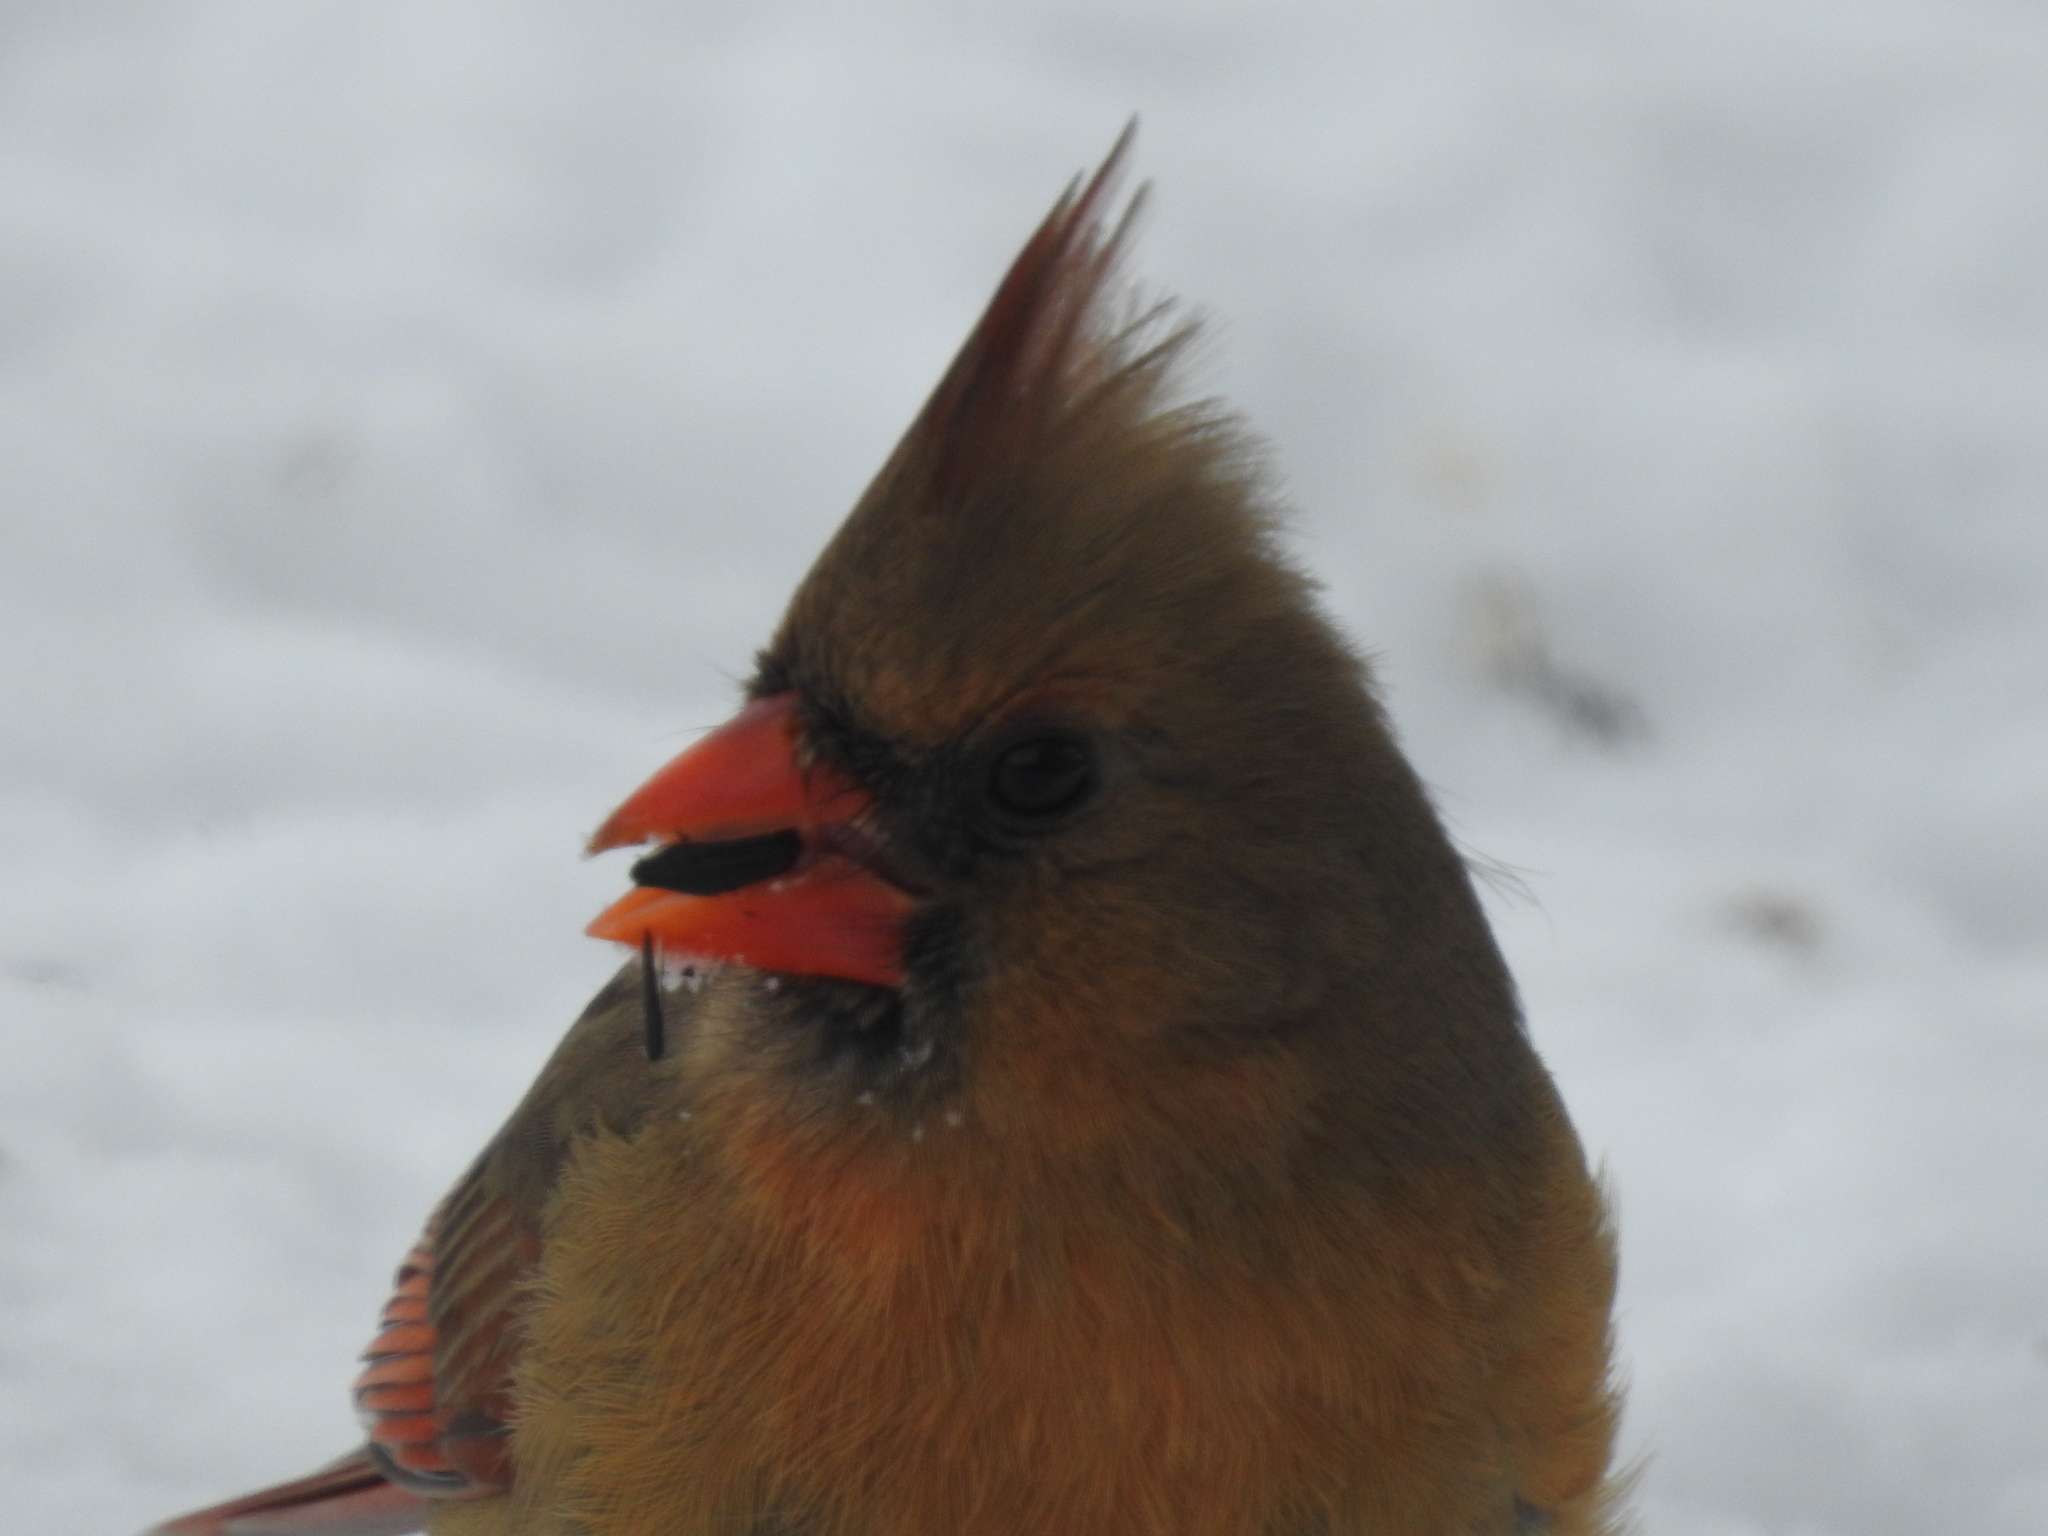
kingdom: Animalia
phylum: Chordata
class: Aves
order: Passeriformes
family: Cardinalidae
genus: Cardinalis
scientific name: Cardinalis cardinalis
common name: Northern cardinal
